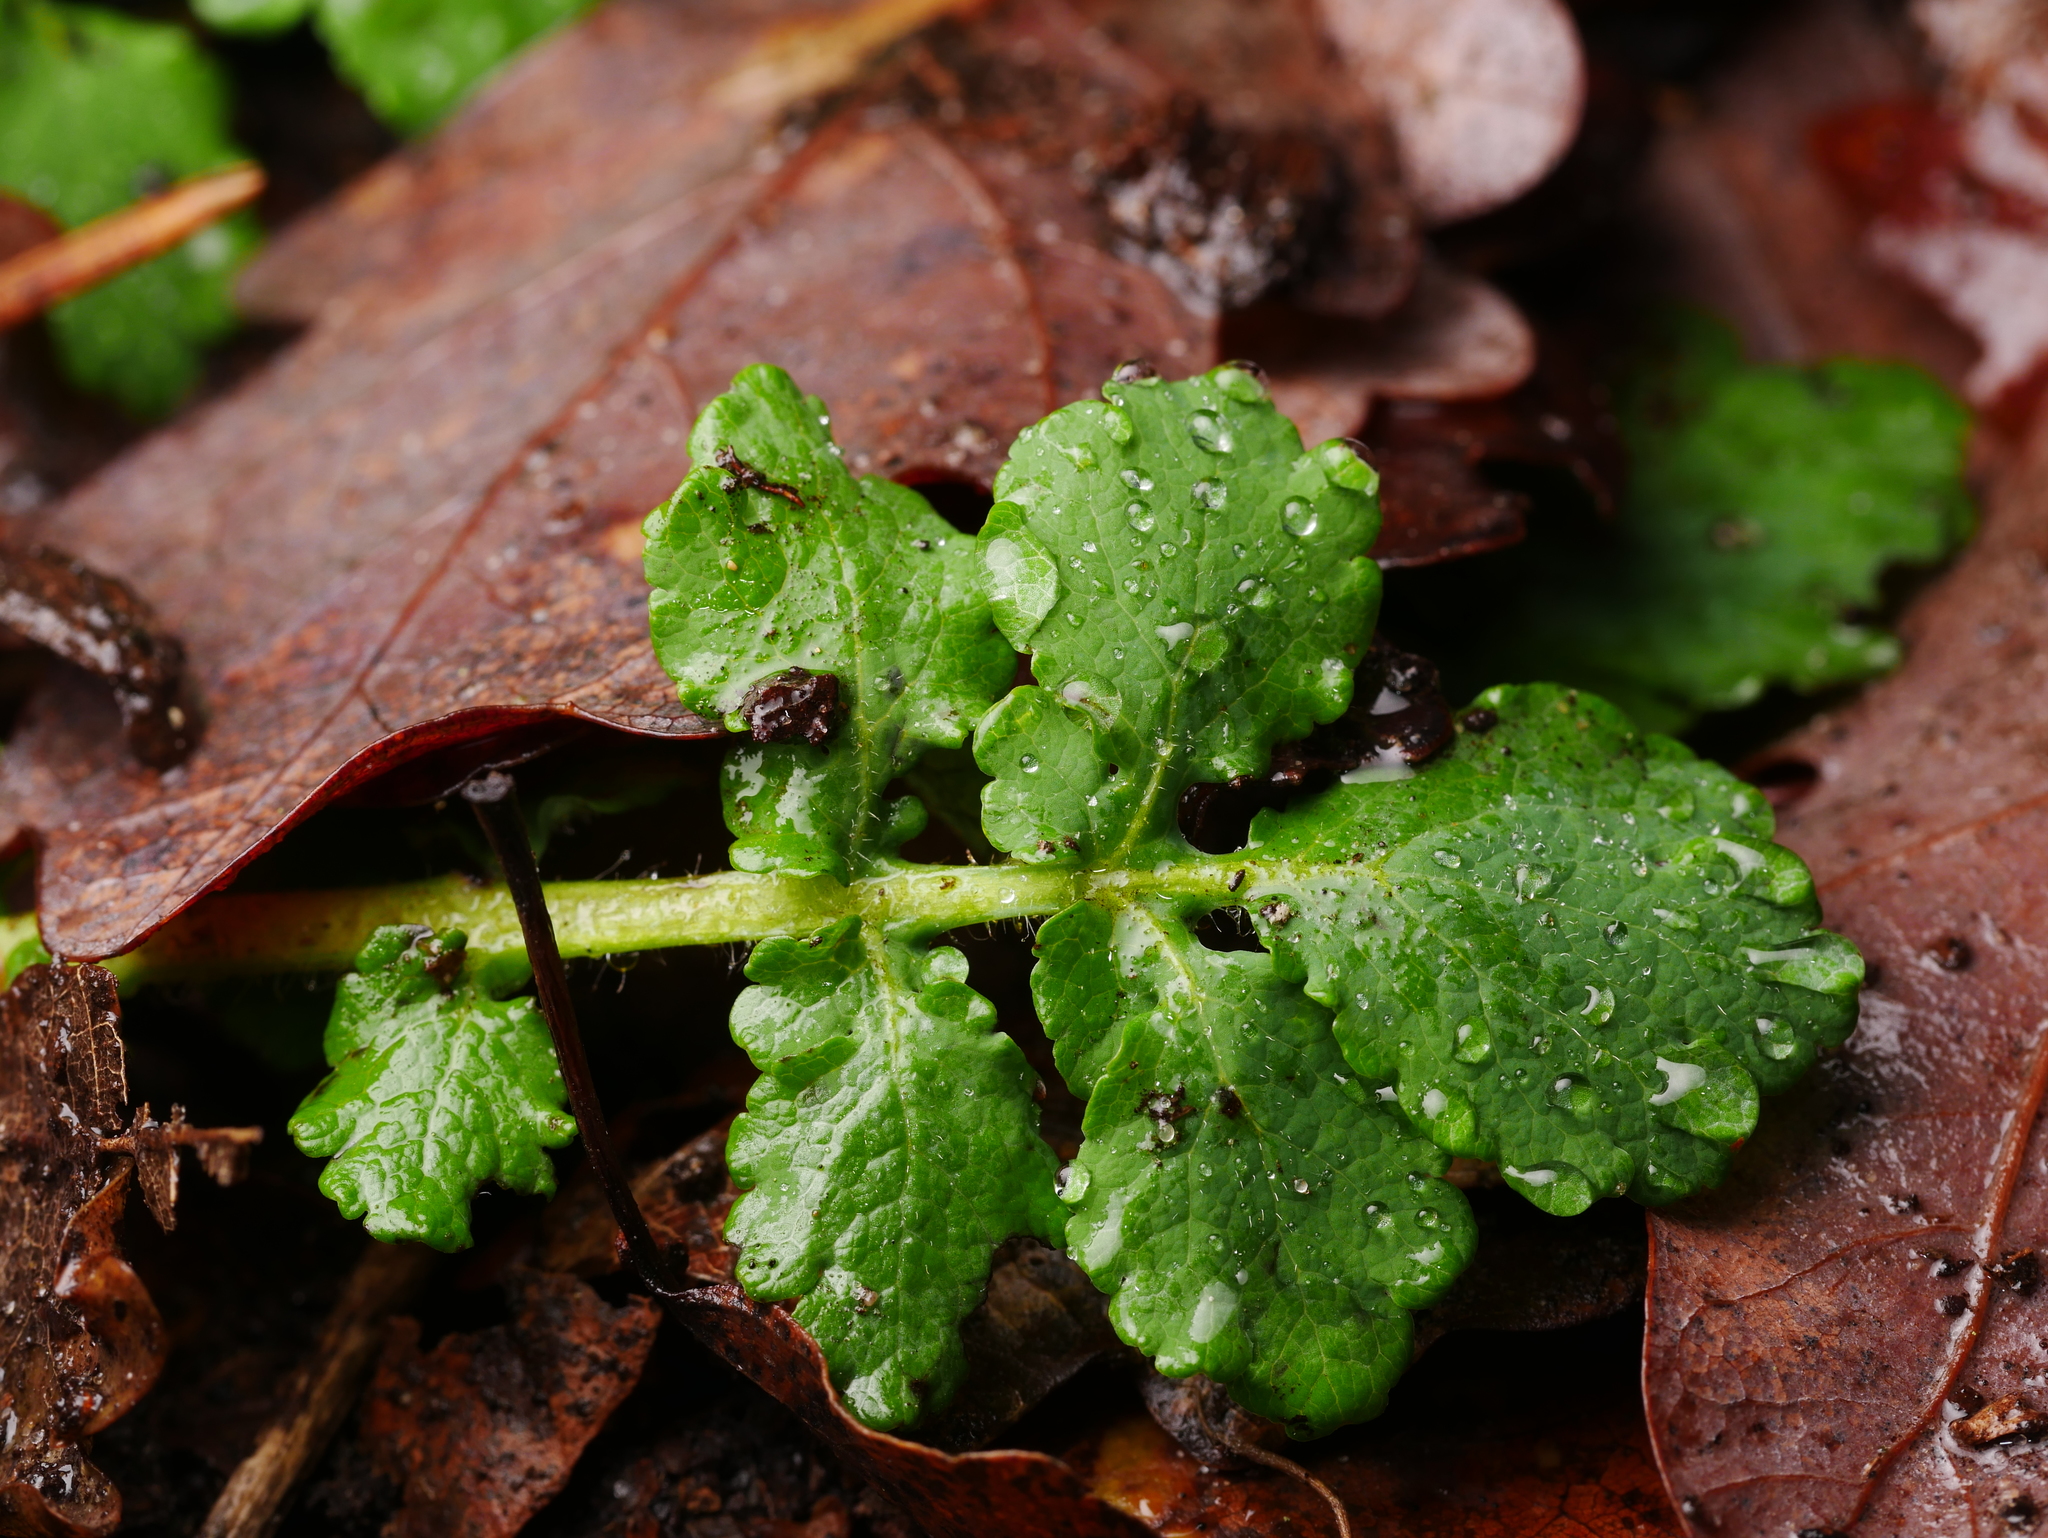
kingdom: Plantae
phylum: Tracheophyta
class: Magnoliopsida
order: Ranunculales
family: Papaveraceae
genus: Chelidonium
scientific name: Chelidonium majus
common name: Greater celandine
